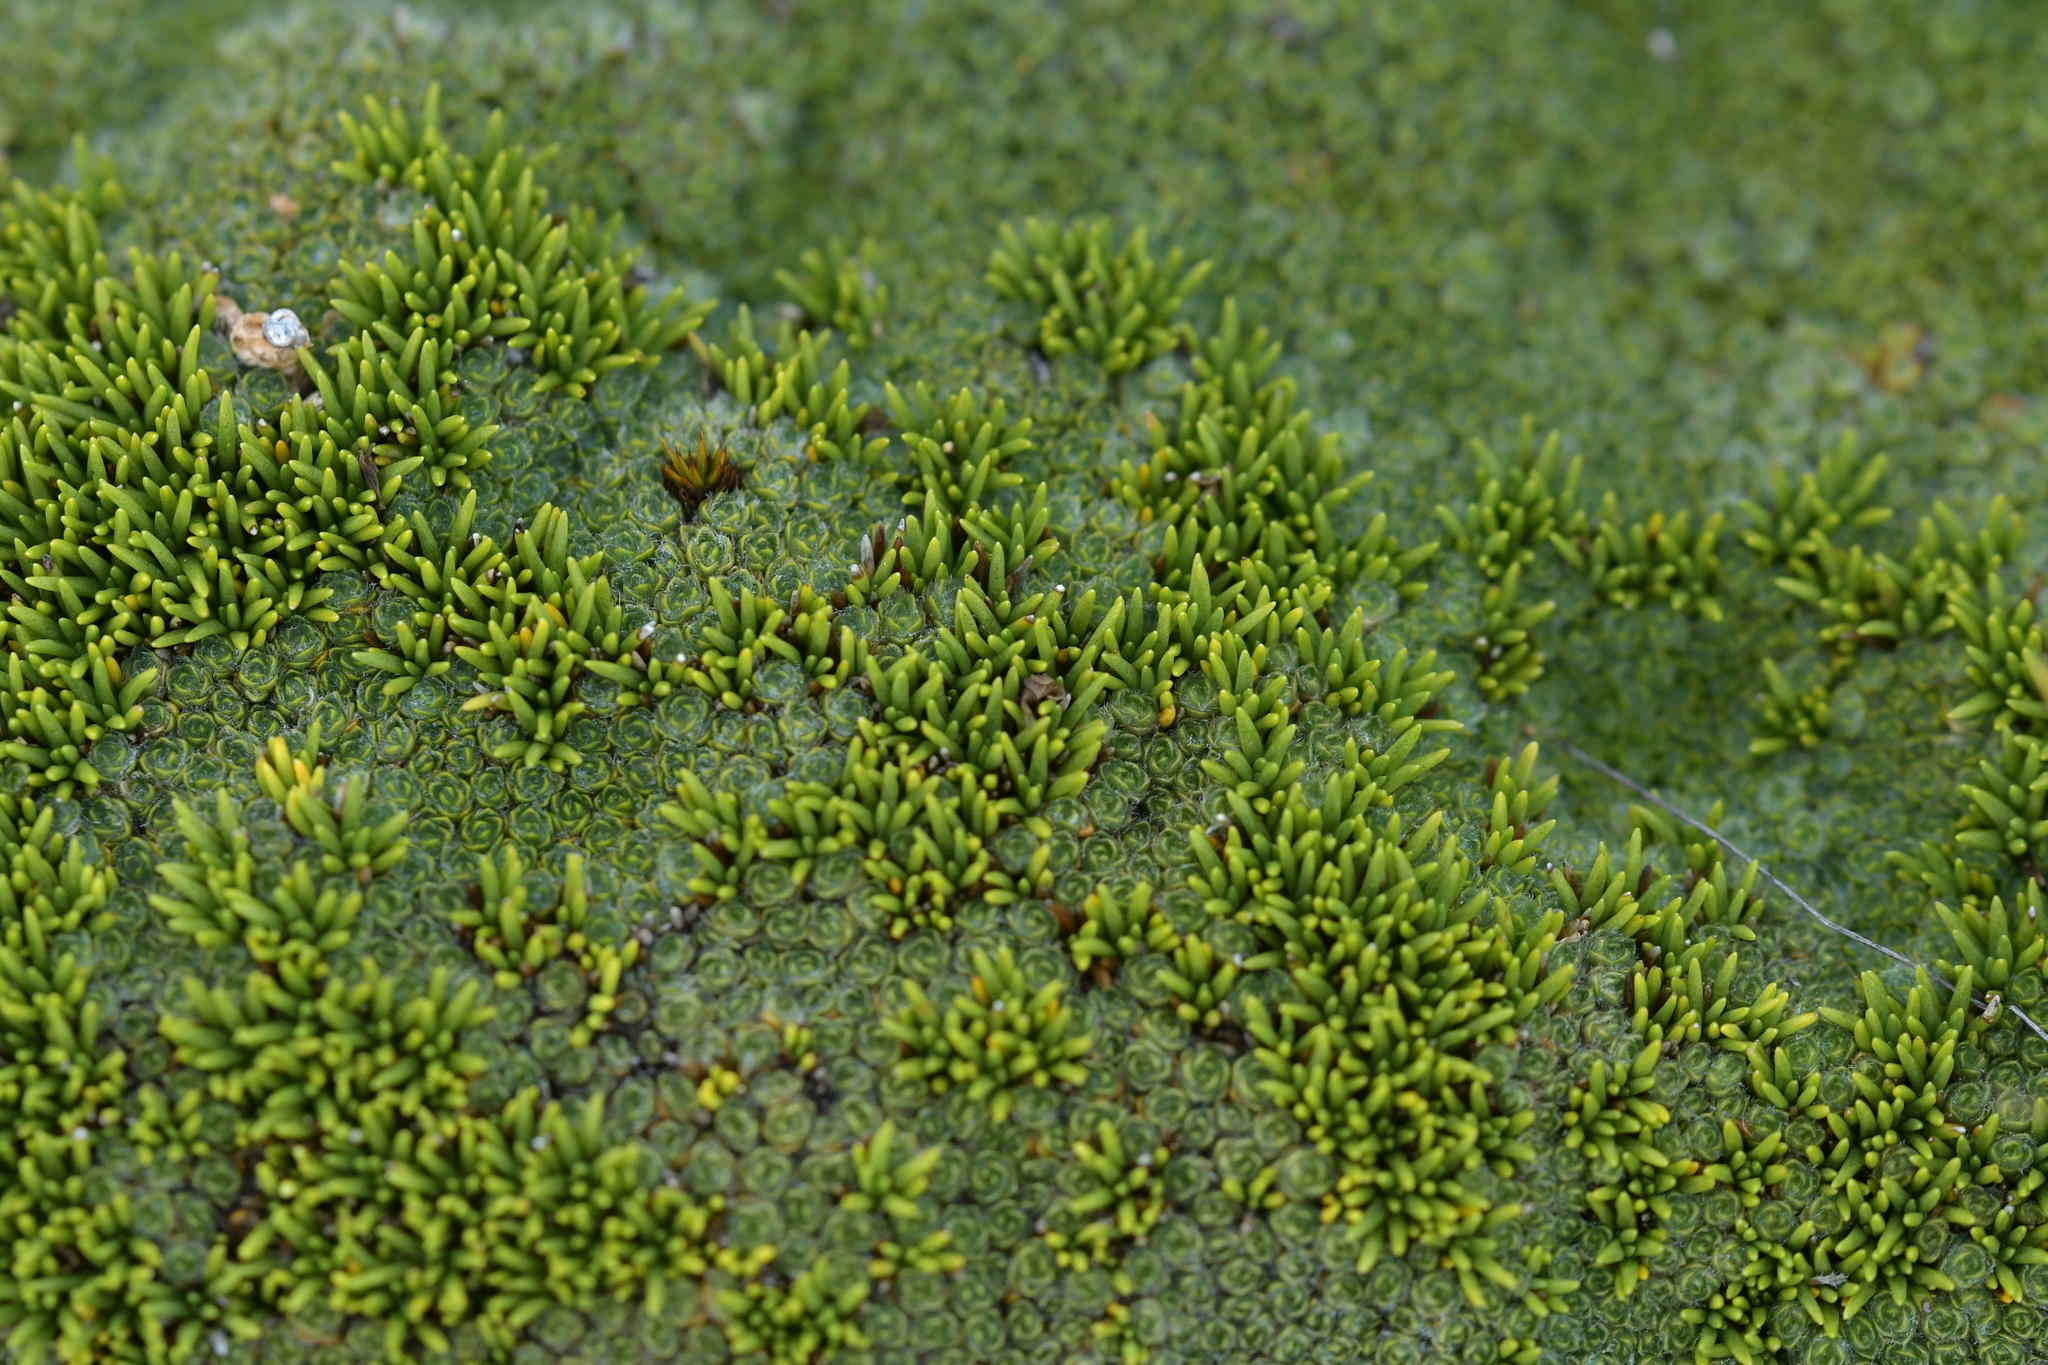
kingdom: Plantae
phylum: Tracheophyta
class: Magnoliopsida
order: Asterales
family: Asteraceae
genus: Abrotanella
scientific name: Abrotanella inconspicua
